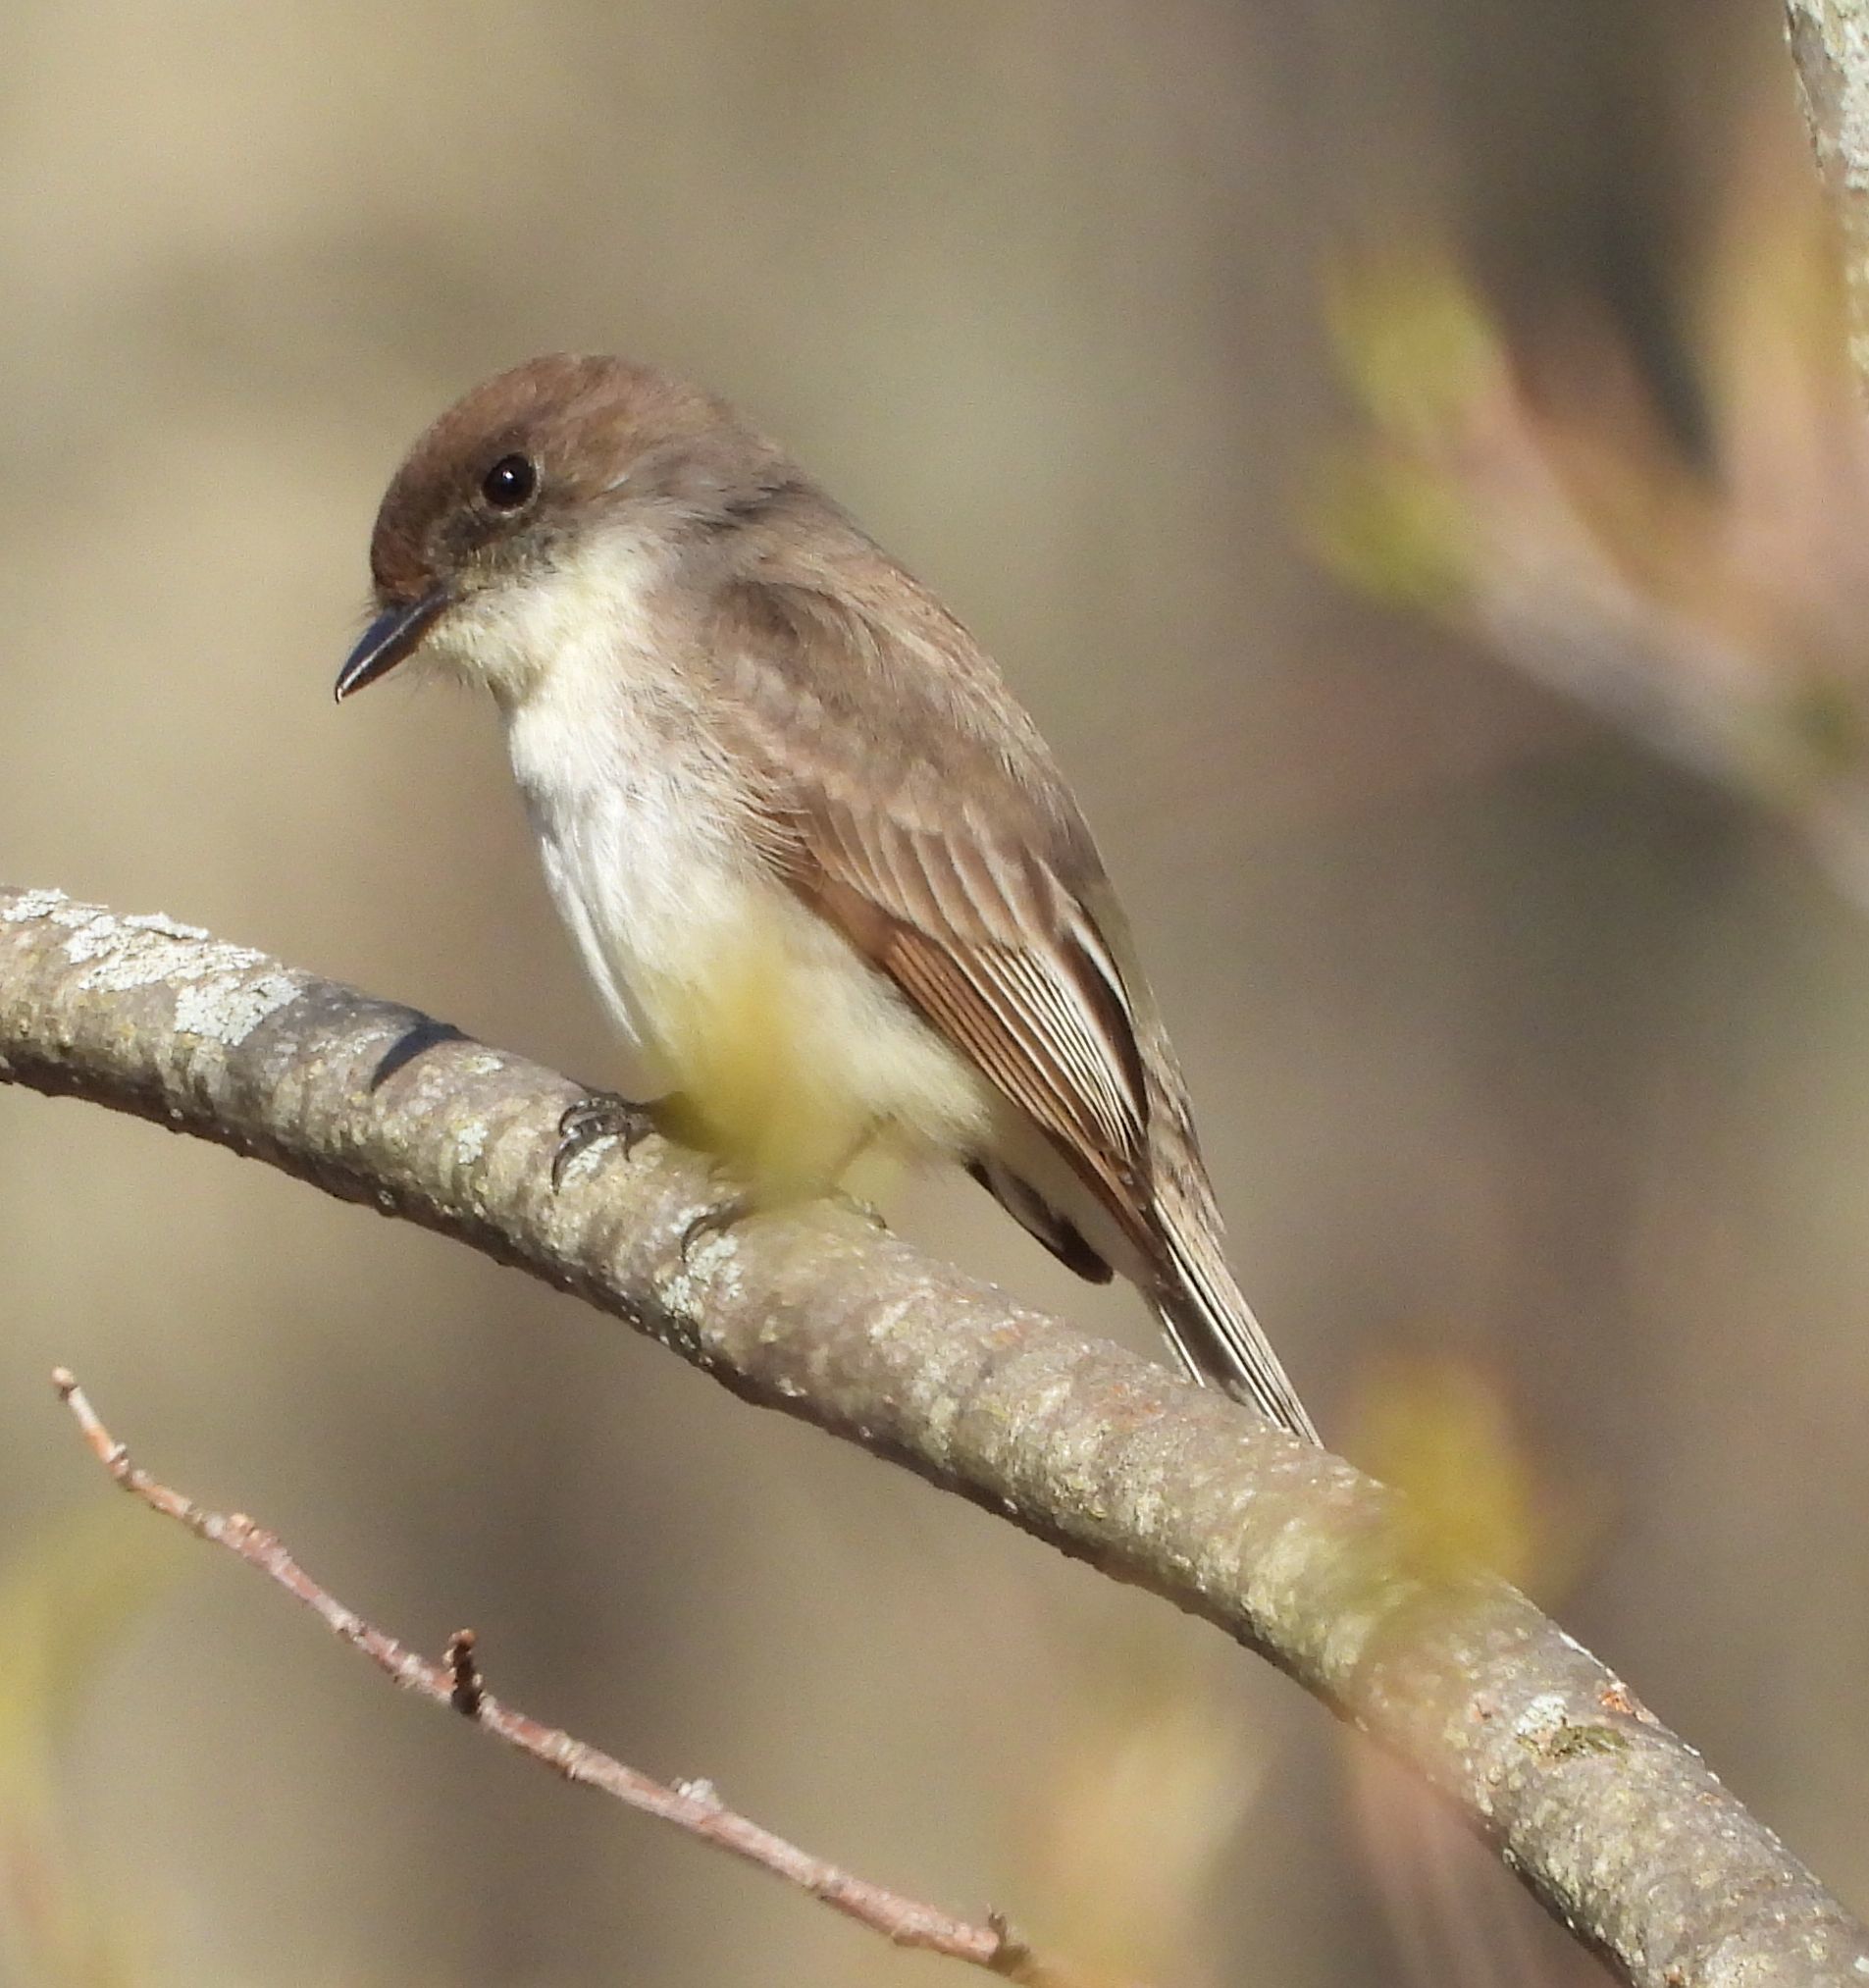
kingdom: Animalia
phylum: Chordata
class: Aves
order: Passeriformes
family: Tyrannidae
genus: Sayornis
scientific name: Sayornis phoebe
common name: Eastern phoebe
